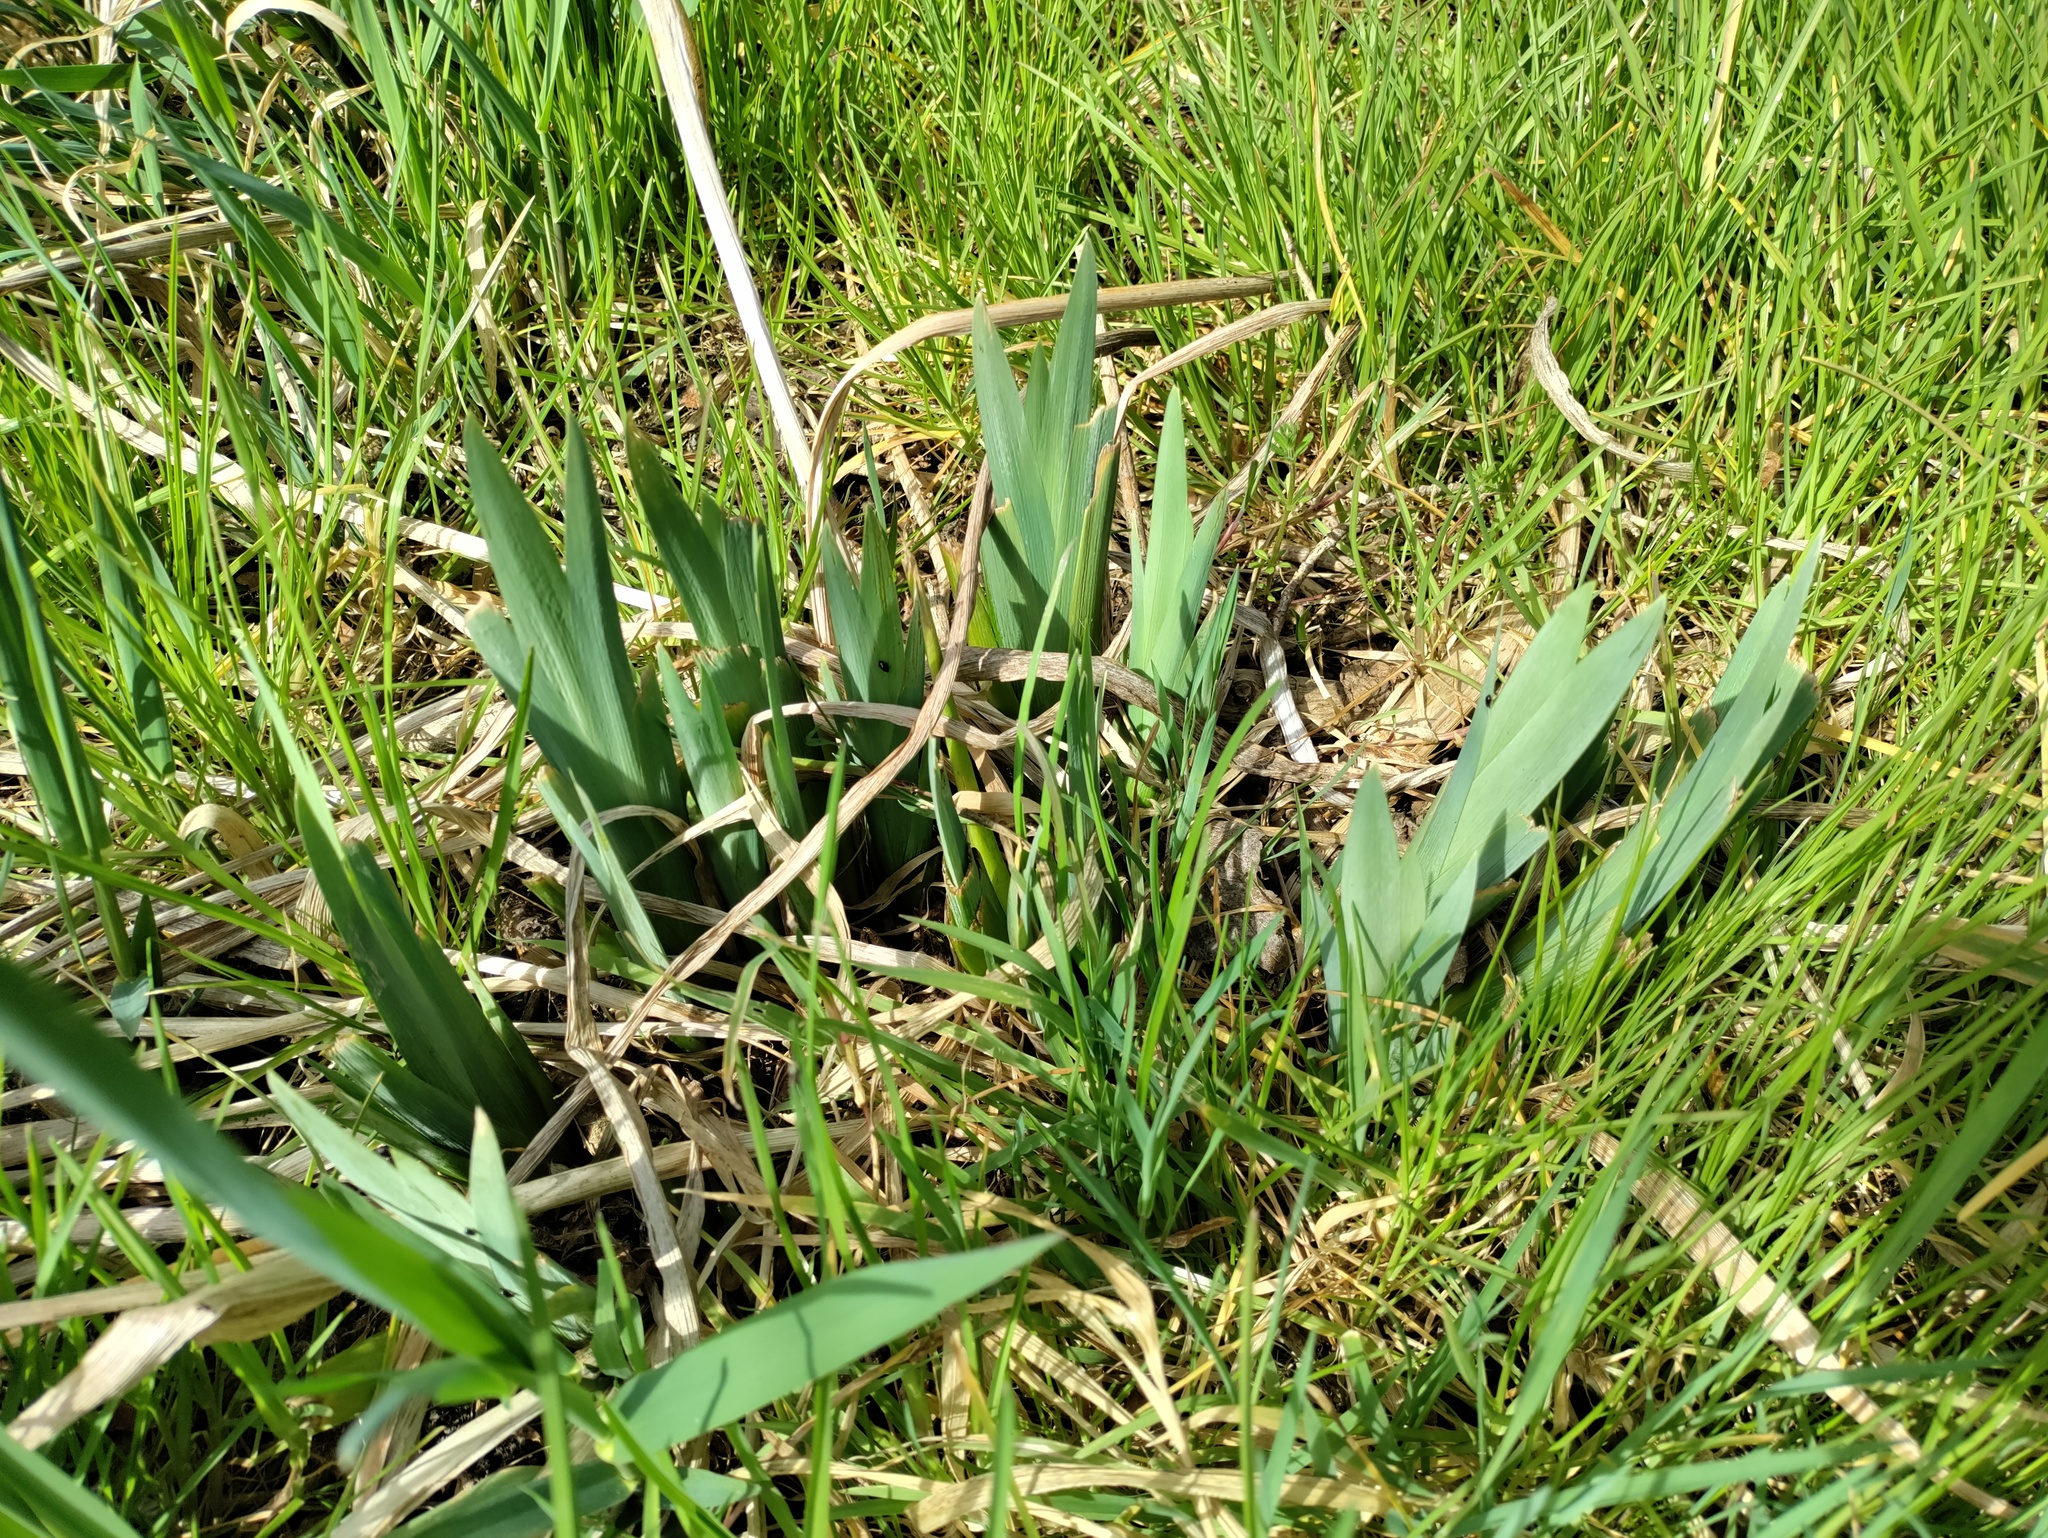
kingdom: Plantae
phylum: Tracheophyta
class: Liliopsida
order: Asparagales
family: Iridaceae
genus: Iris
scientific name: Iris pseudacorus
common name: Yellow flag
